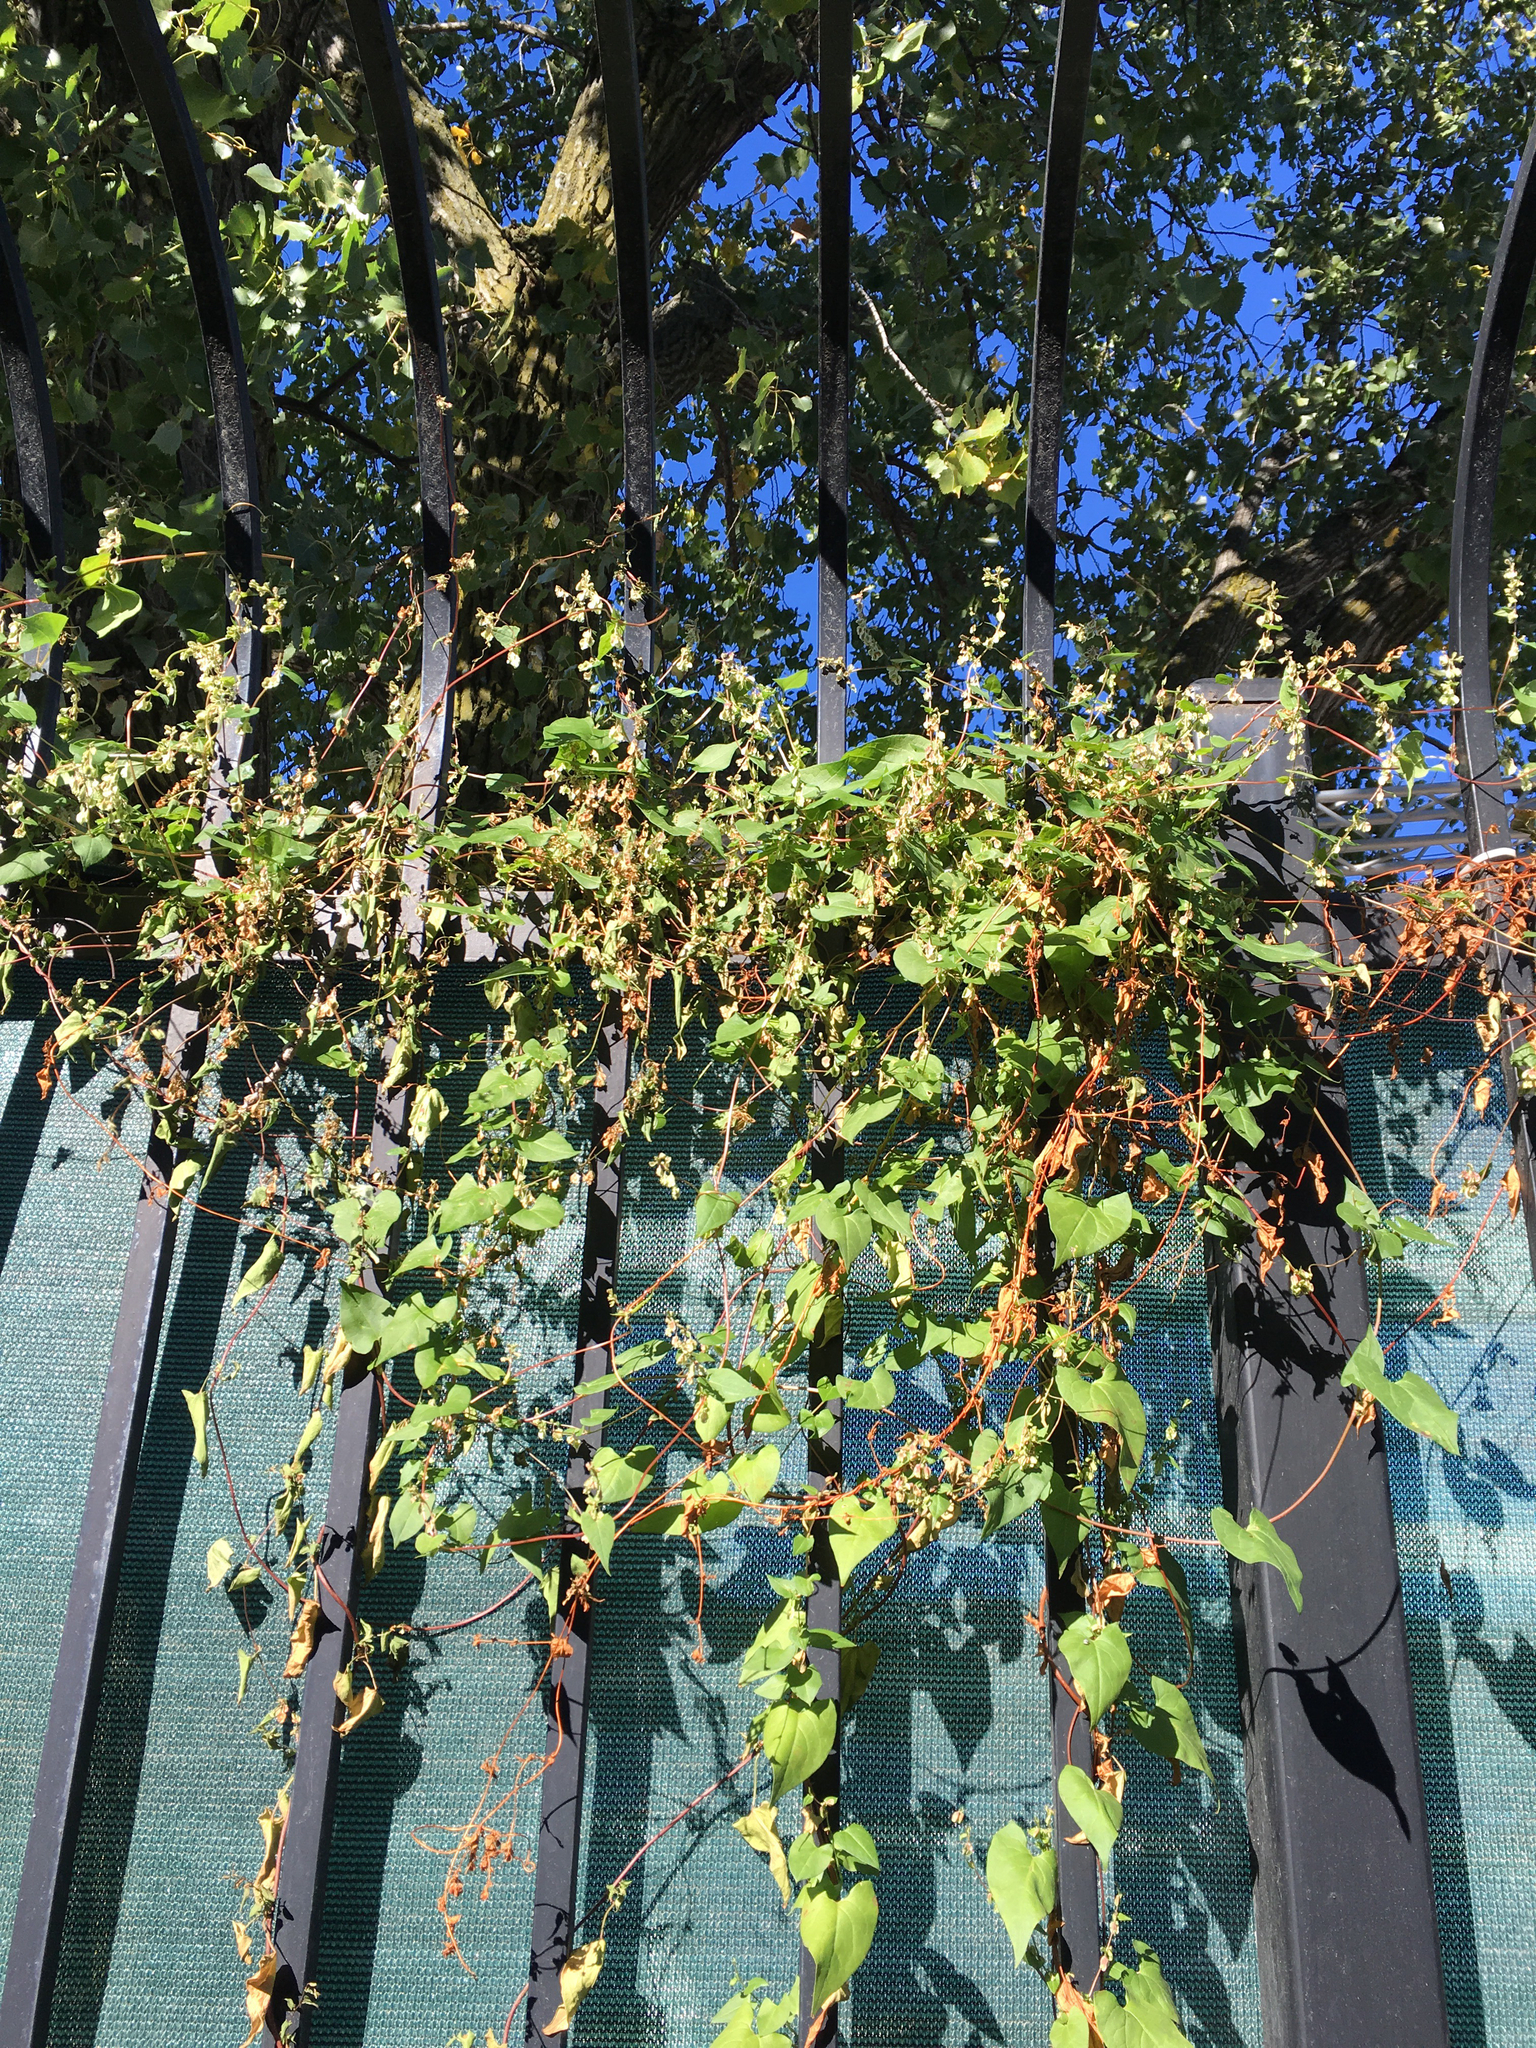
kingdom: Plantae
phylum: Tracheophyta
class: Magnoliopsida
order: Caryophyllales
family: Polygonaceae
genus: Fallopia
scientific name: Fallopia scandens
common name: Climbing false buckwheat
